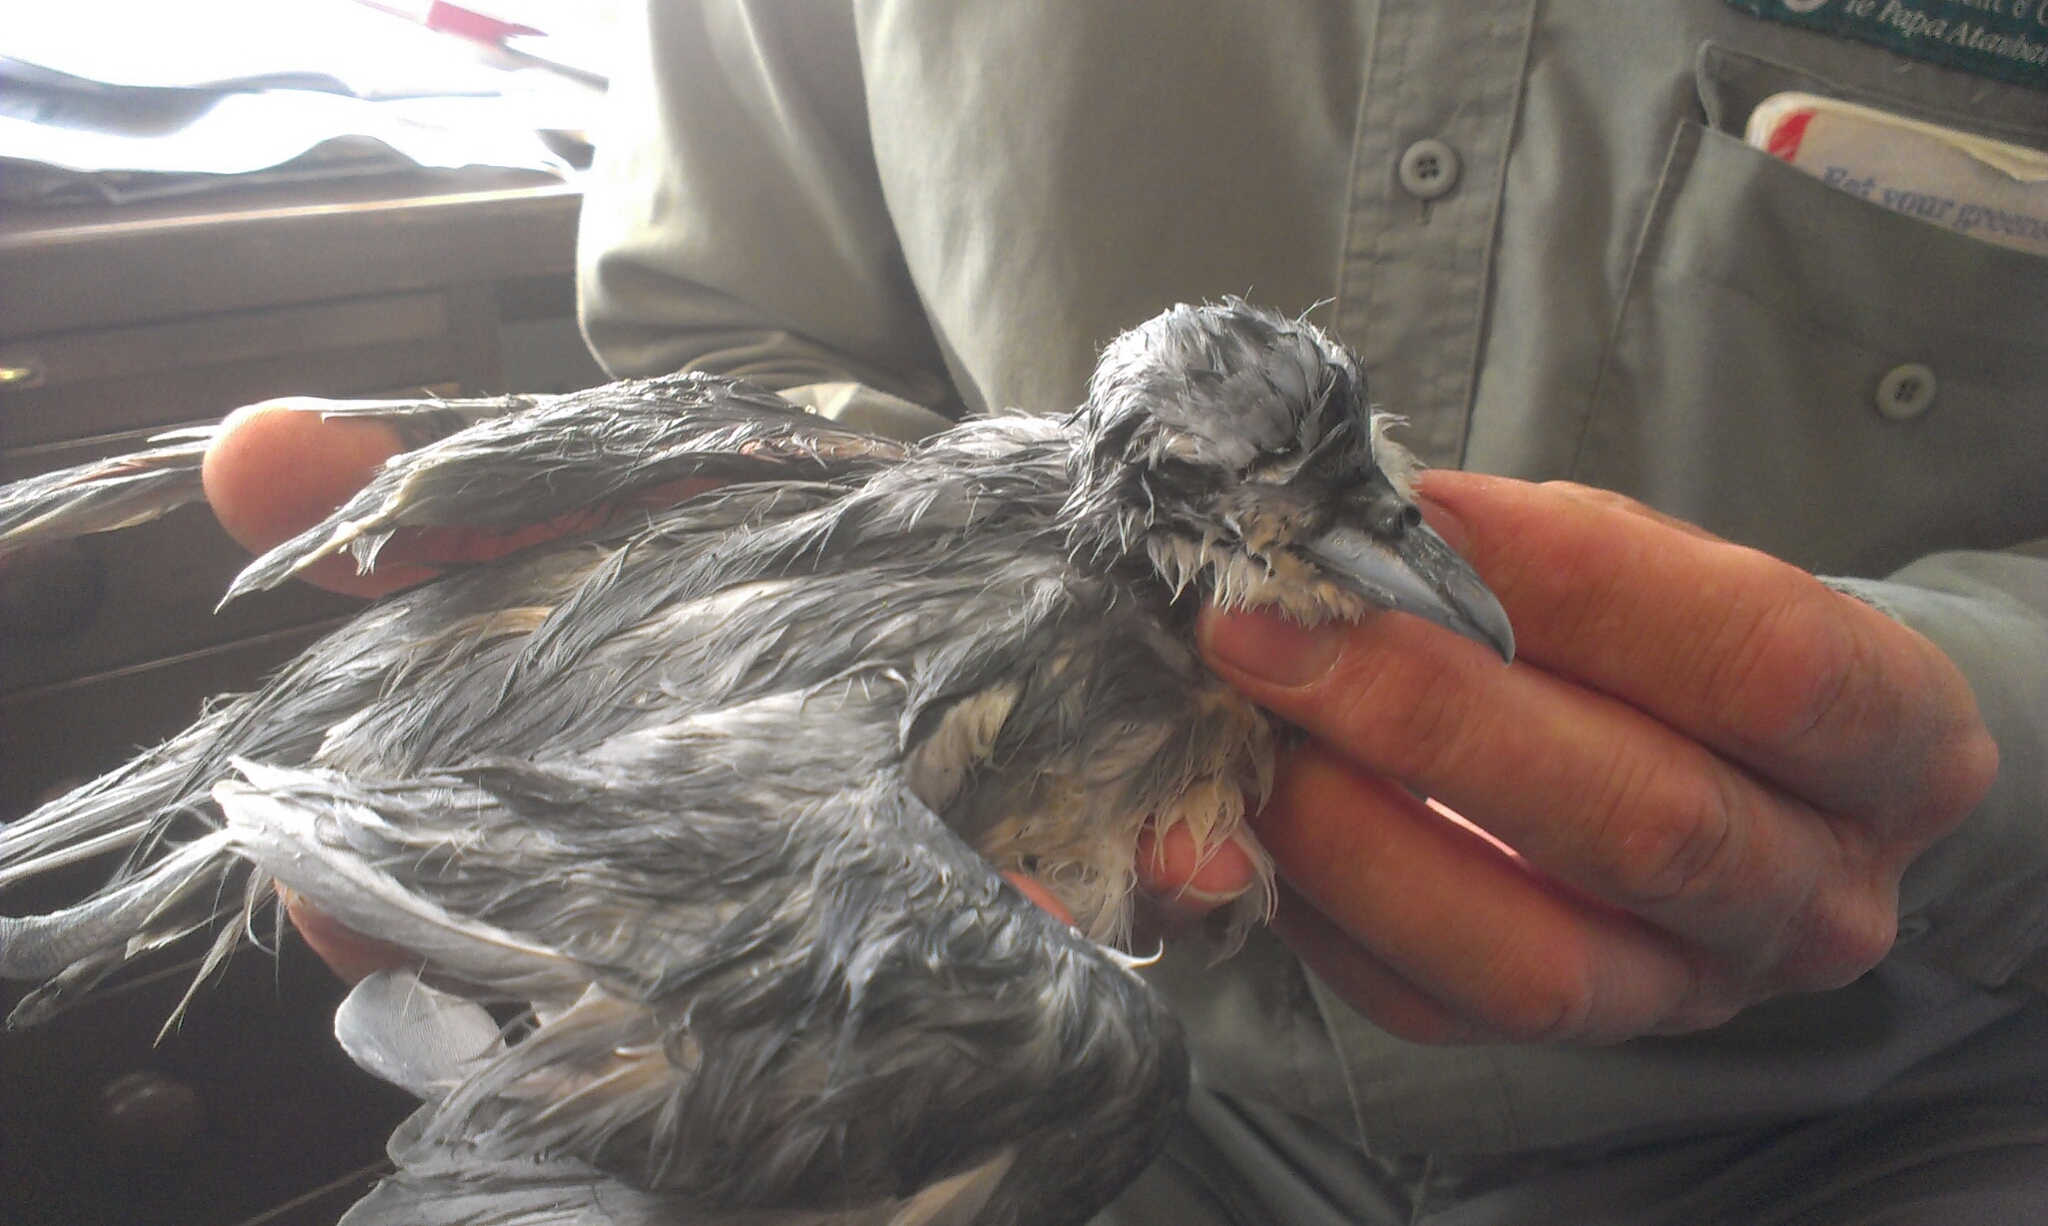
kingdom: Animalia
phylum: Chordata
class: Aves
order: Procellariiformes
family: Procellariidae
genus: Pachyptila
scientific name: Pachyptila turtur
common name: Fairy prion
